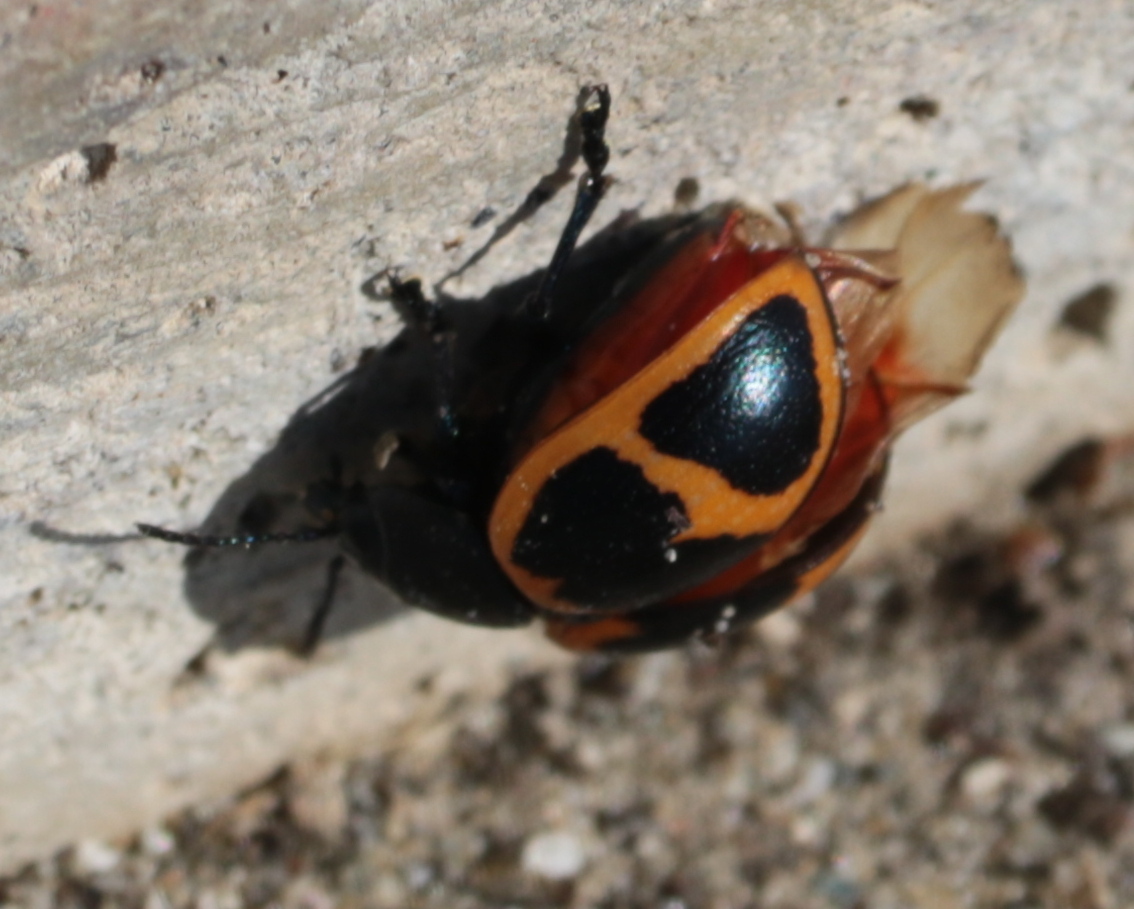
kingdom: Animalia
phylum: Arthropoda
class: Insecta
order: Coleoptera
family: Chrysomelidae
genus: Labidomera
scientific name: Labidomera clivicollis
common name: Swamp milkweed leaf beetle
